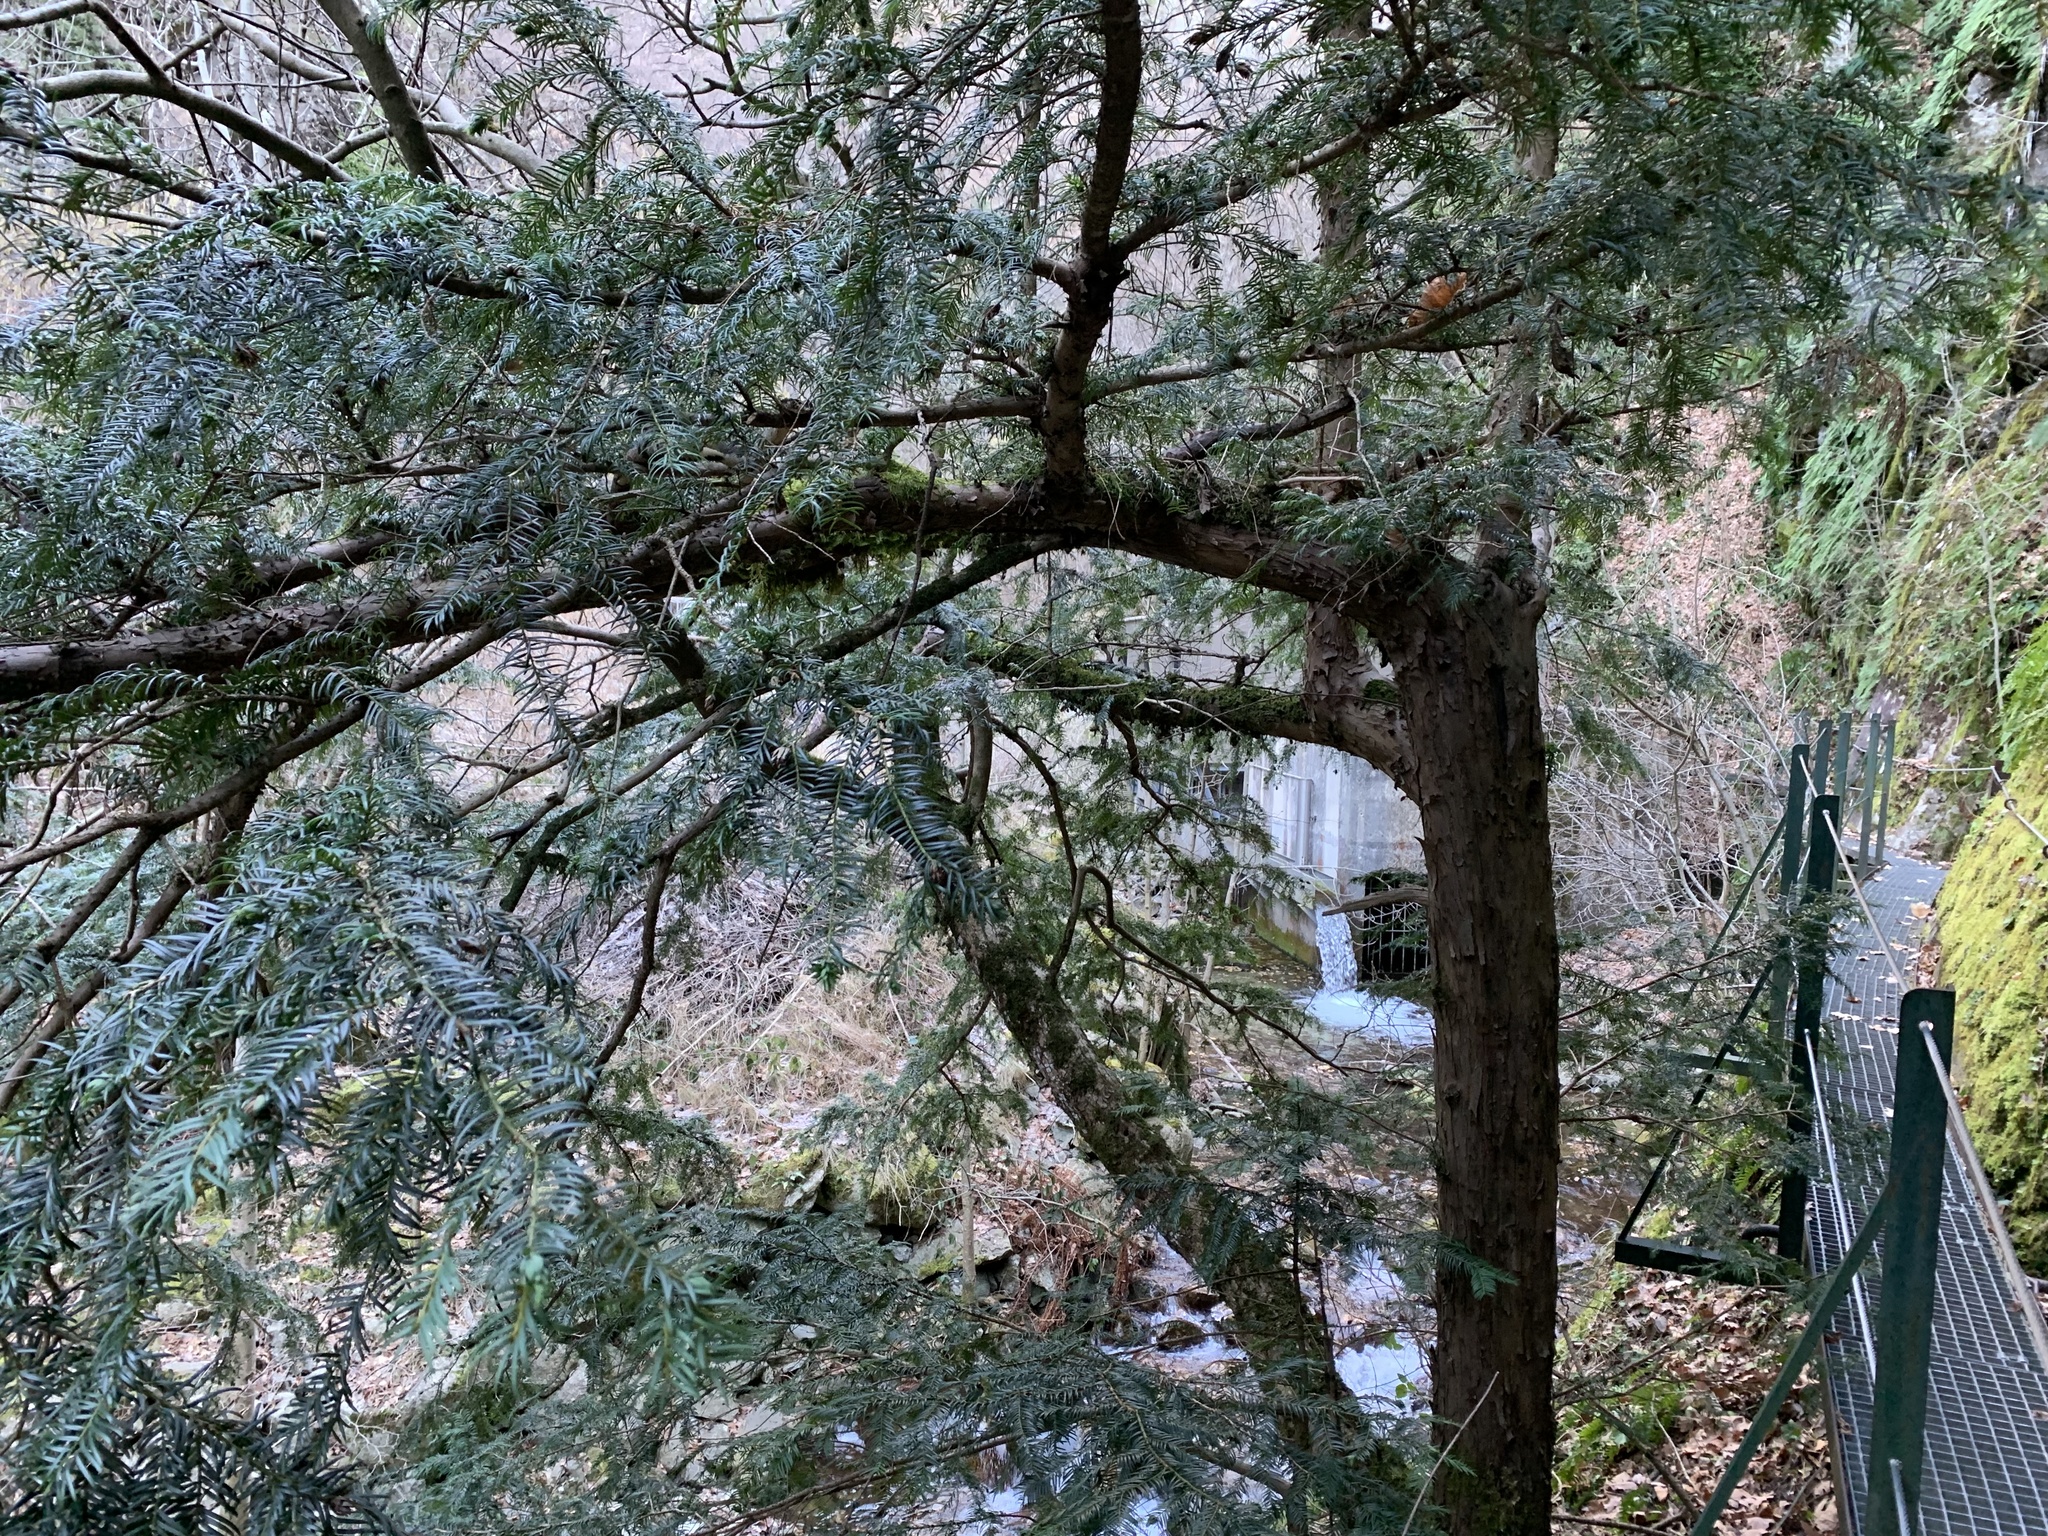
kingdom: Plantae
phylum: Tracheophyta
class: Pinopsida
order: Pinales
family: Taxaceae
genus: Taxus
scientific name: Taxus baccata
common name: Yew
